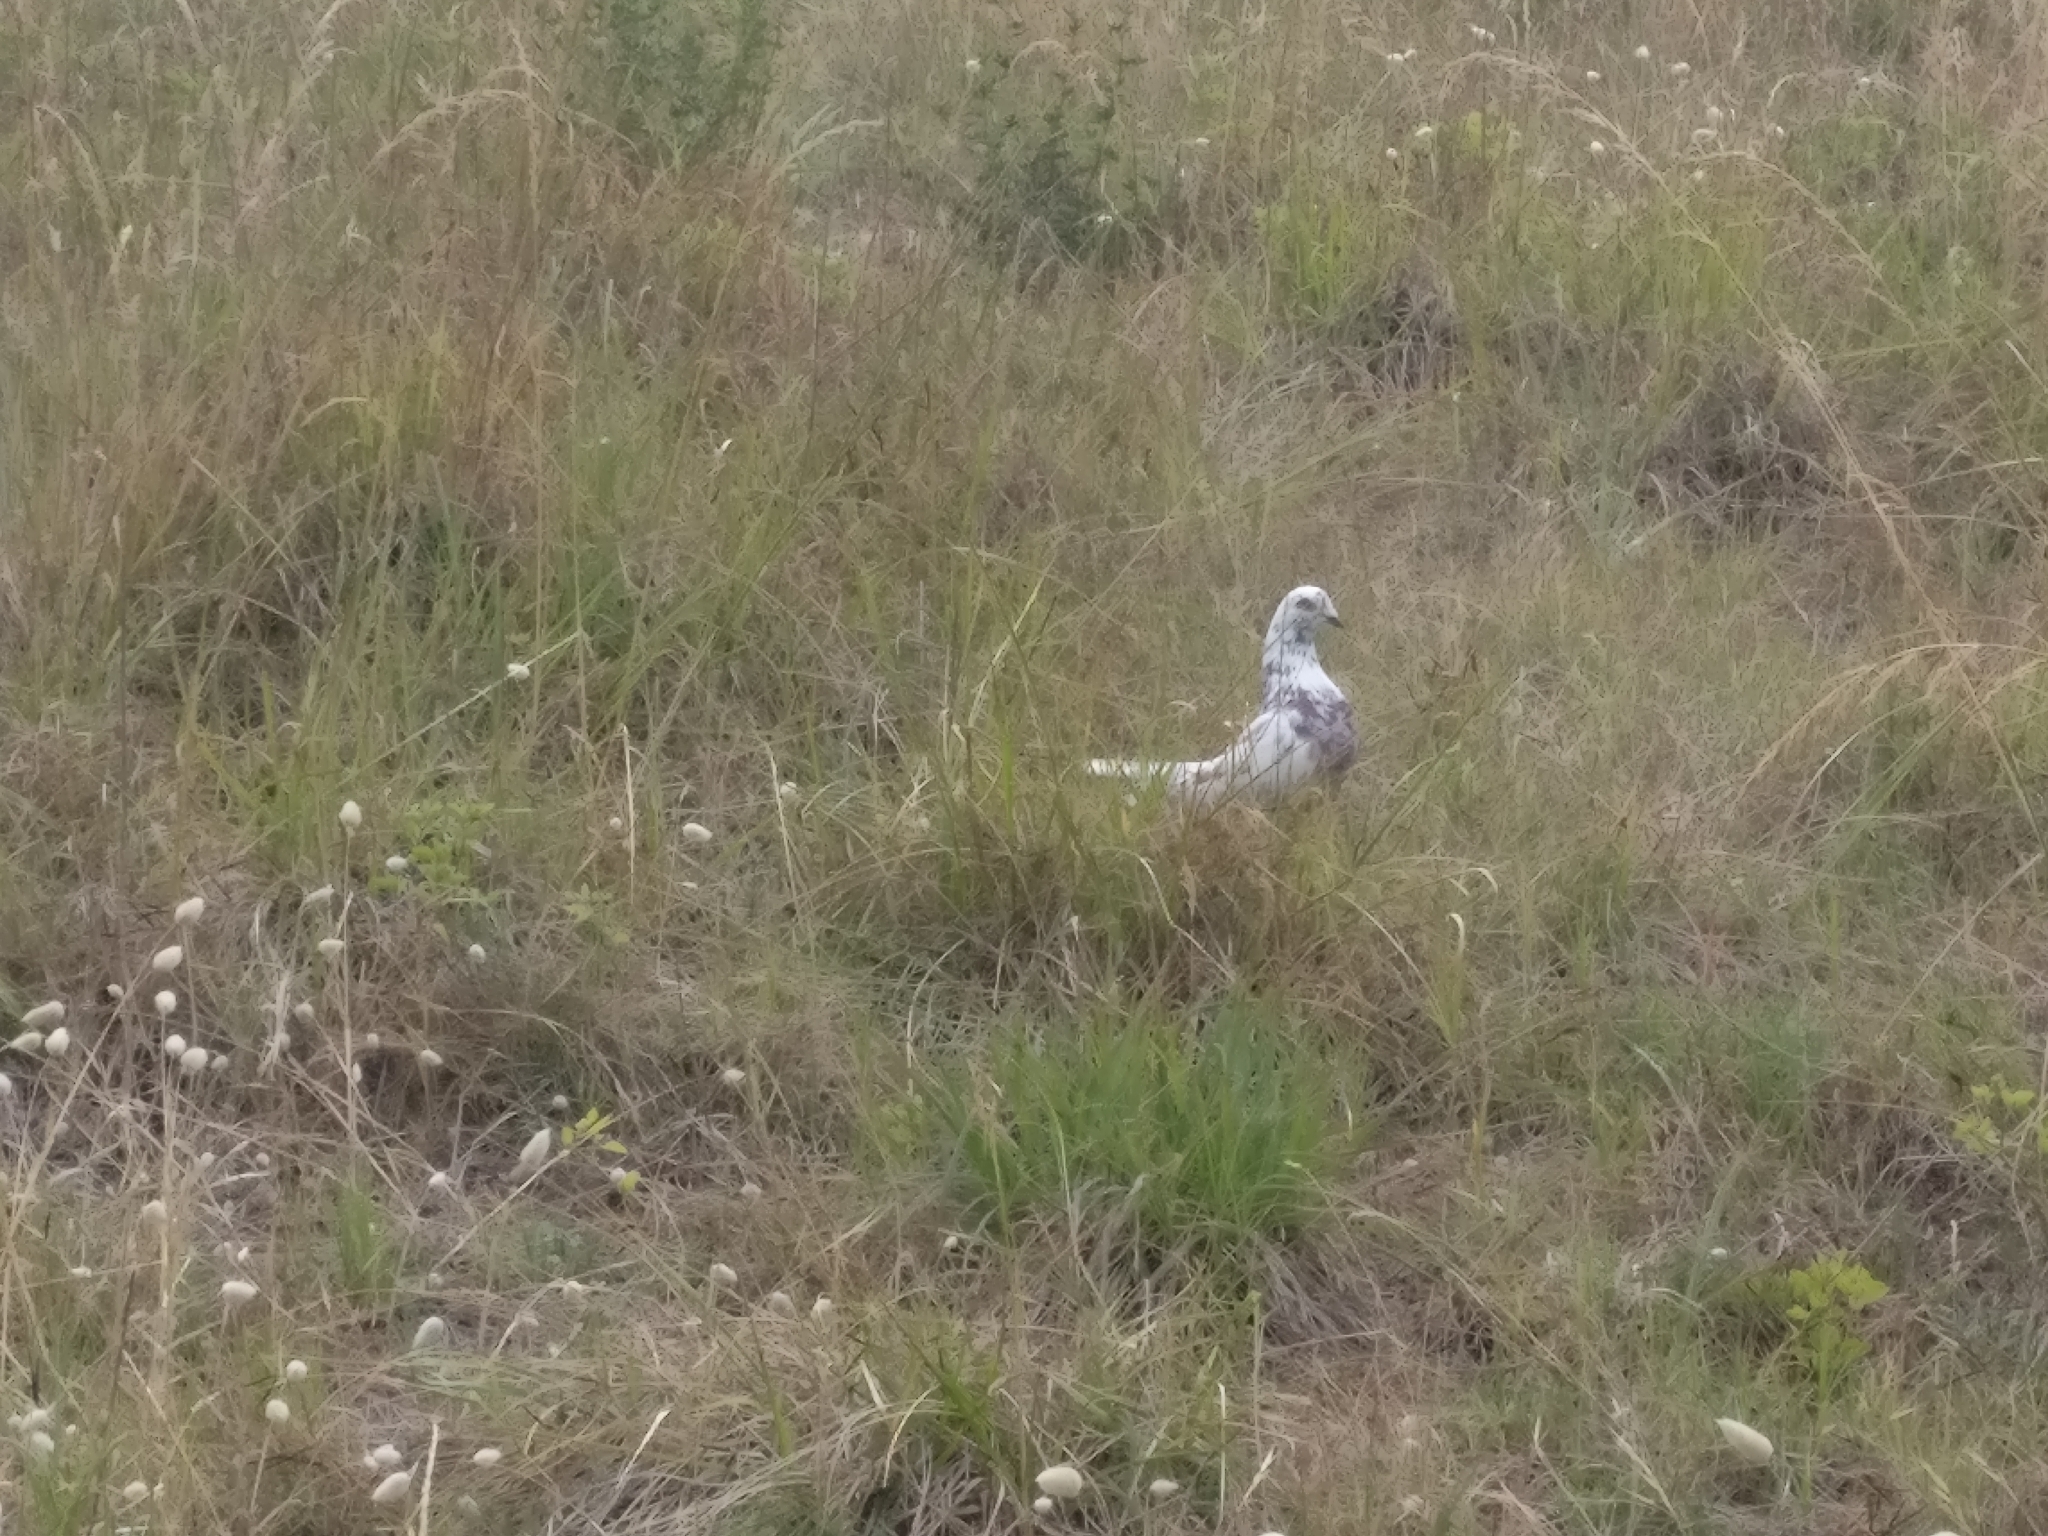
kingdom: Animalia
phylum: Chordata
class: Aves
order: Columbiformes
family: Columbidae
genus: Columba
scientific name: Columba livia
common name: Rock pigeon
